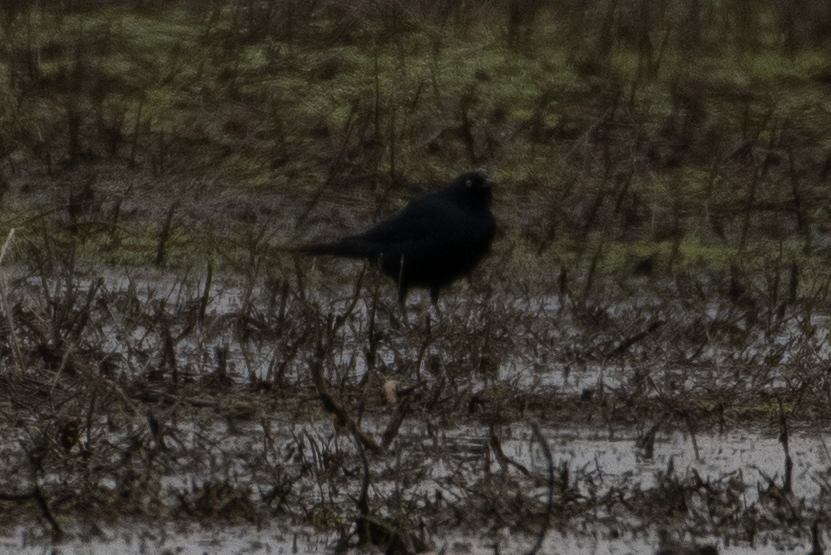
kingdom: Animalia
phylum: Chordata
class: Aves
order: Passeriformes
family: Icteridae
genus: Euphagus
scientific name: Euphagus cyanocephalus
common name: Brewer's blackbird
